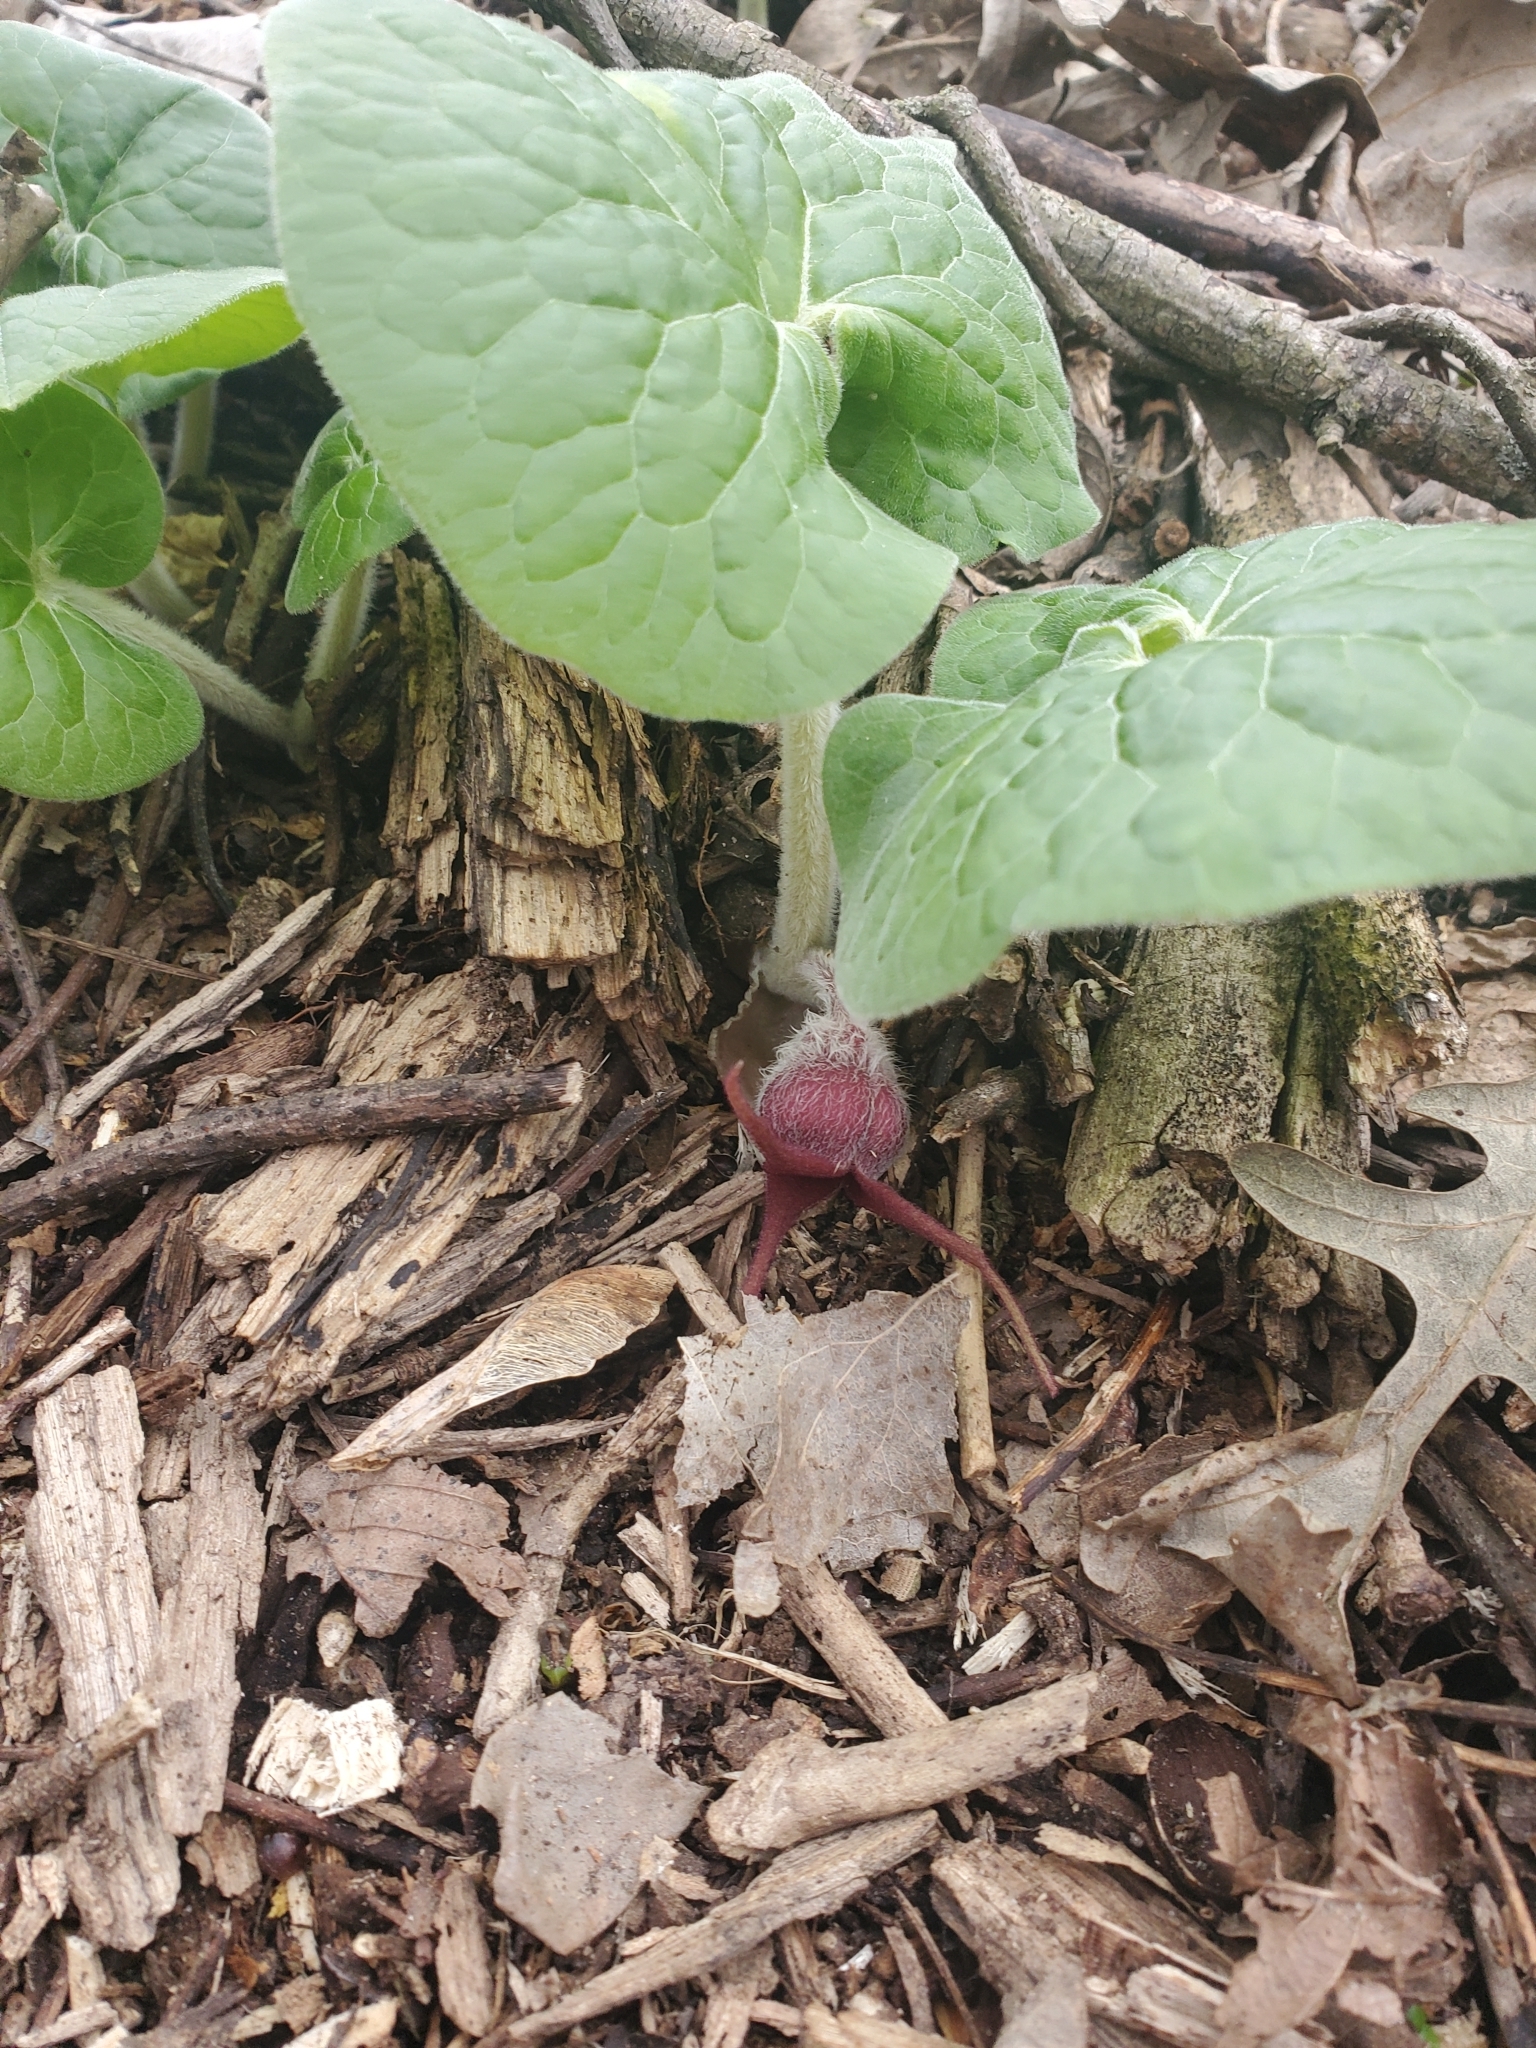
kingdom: Plantae
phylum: Tracheophyta
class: Magnoliopsida
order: Piperales
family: Aristolochiaceae
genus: Asarum
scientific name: Asarum canadense
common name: Wild ginger
